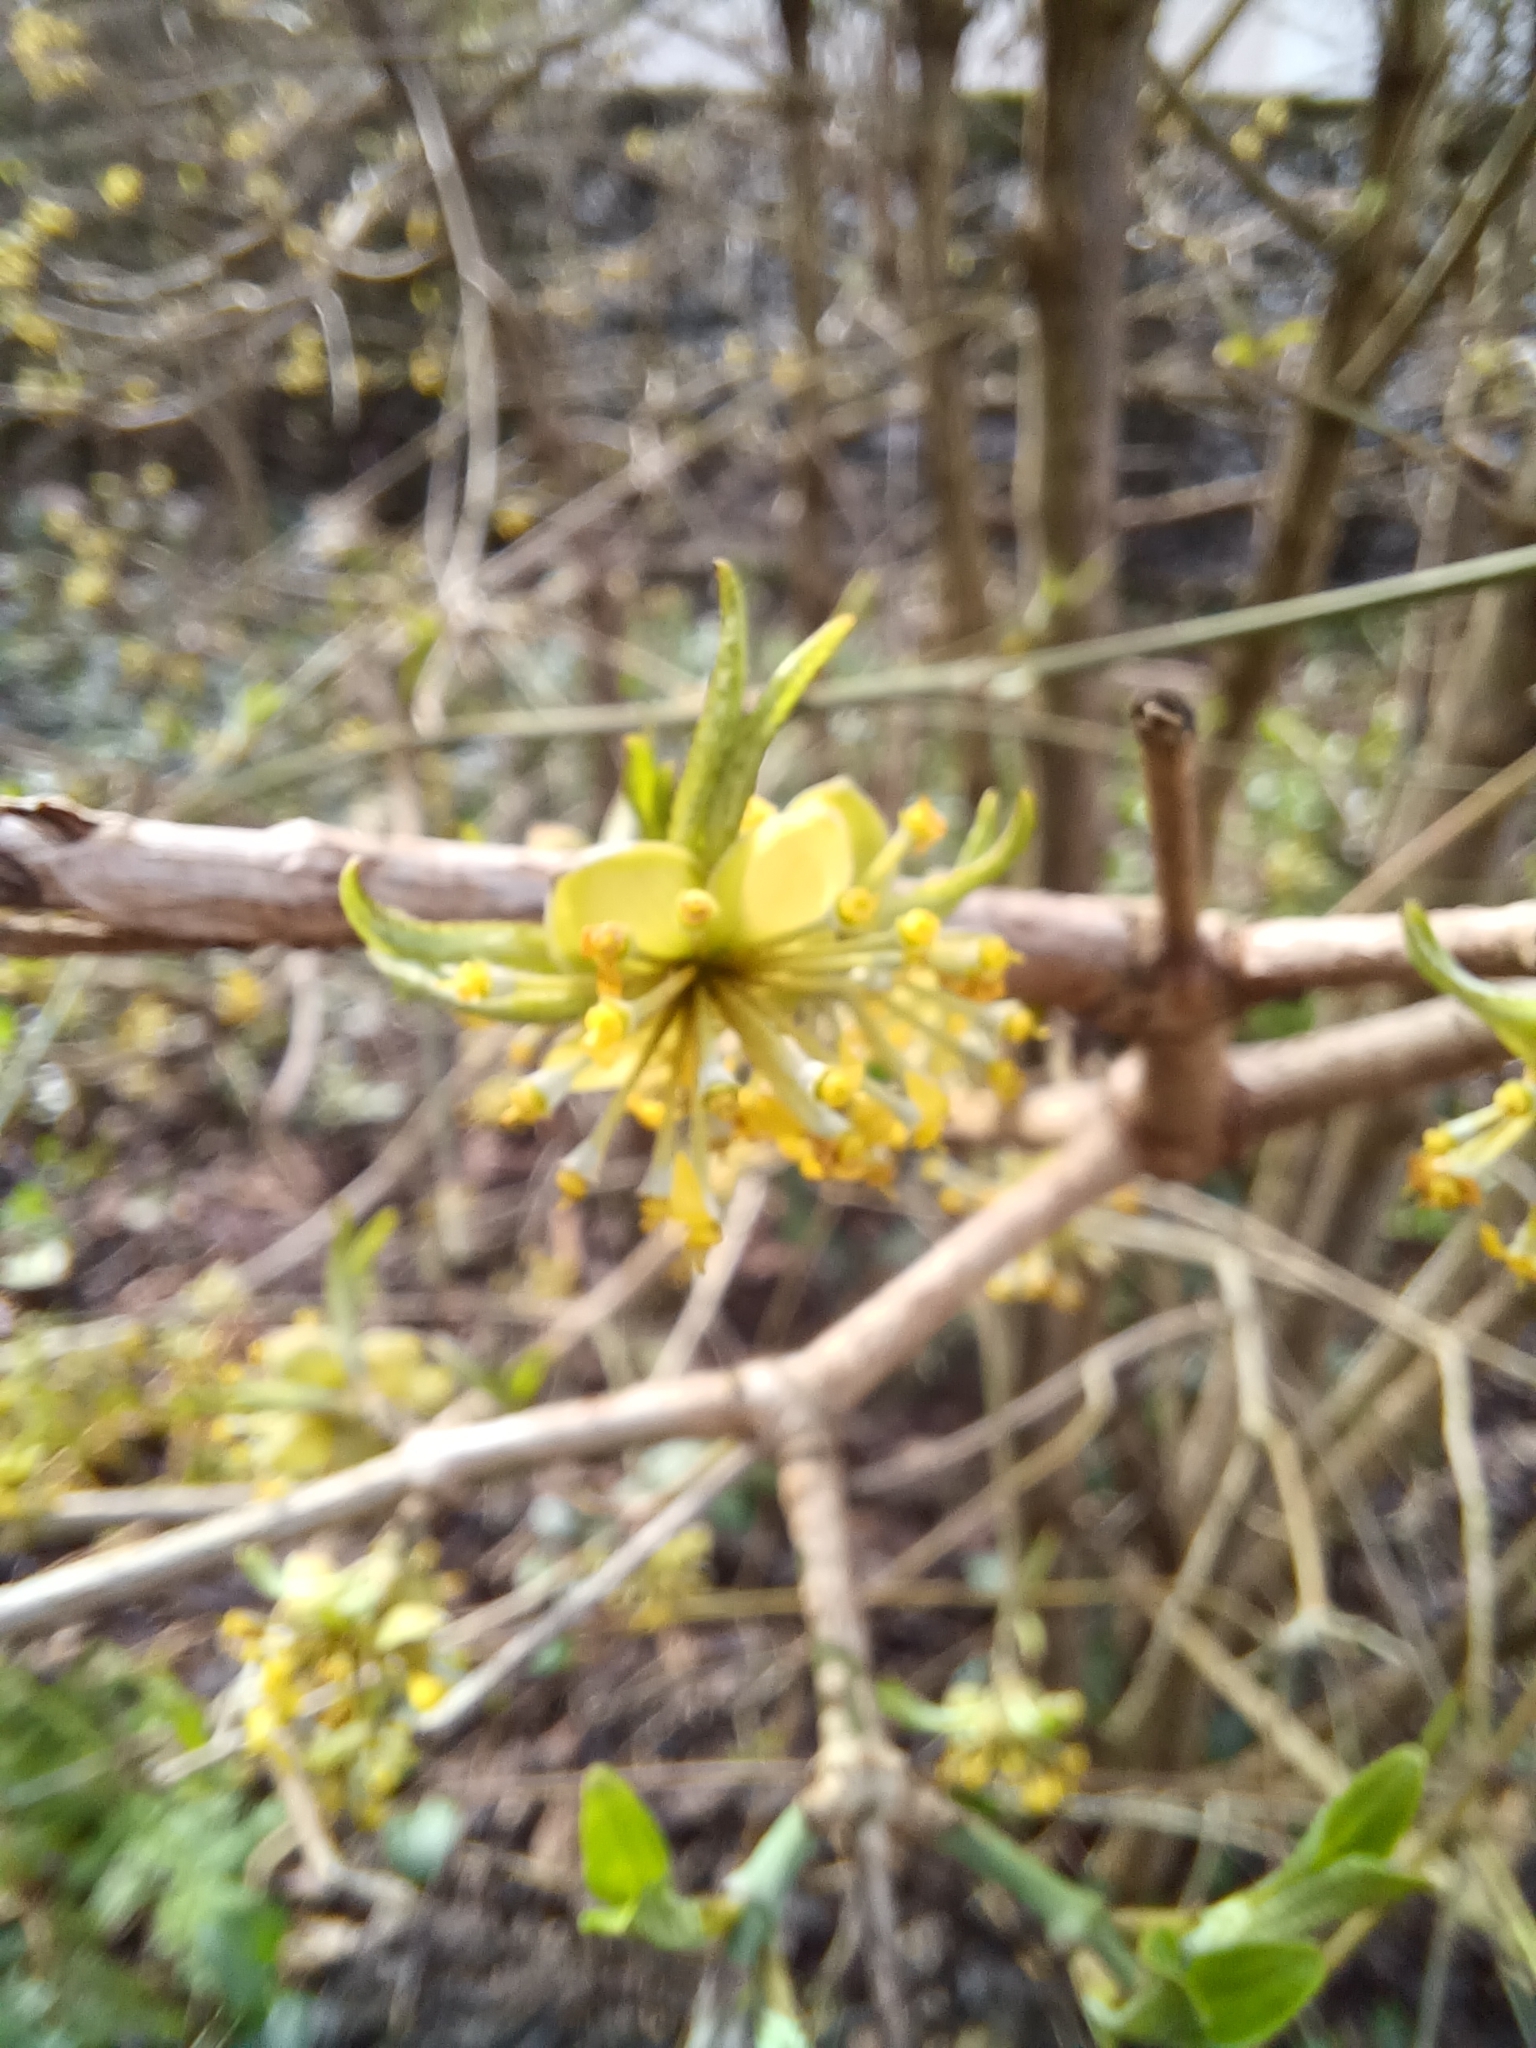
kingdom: Plantae
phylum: Tracheophyta
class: Magnoliopsida
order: Cornales
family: Cornaceae
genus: Cornus
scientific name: Cornus mas
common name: Cornelian-cherry
